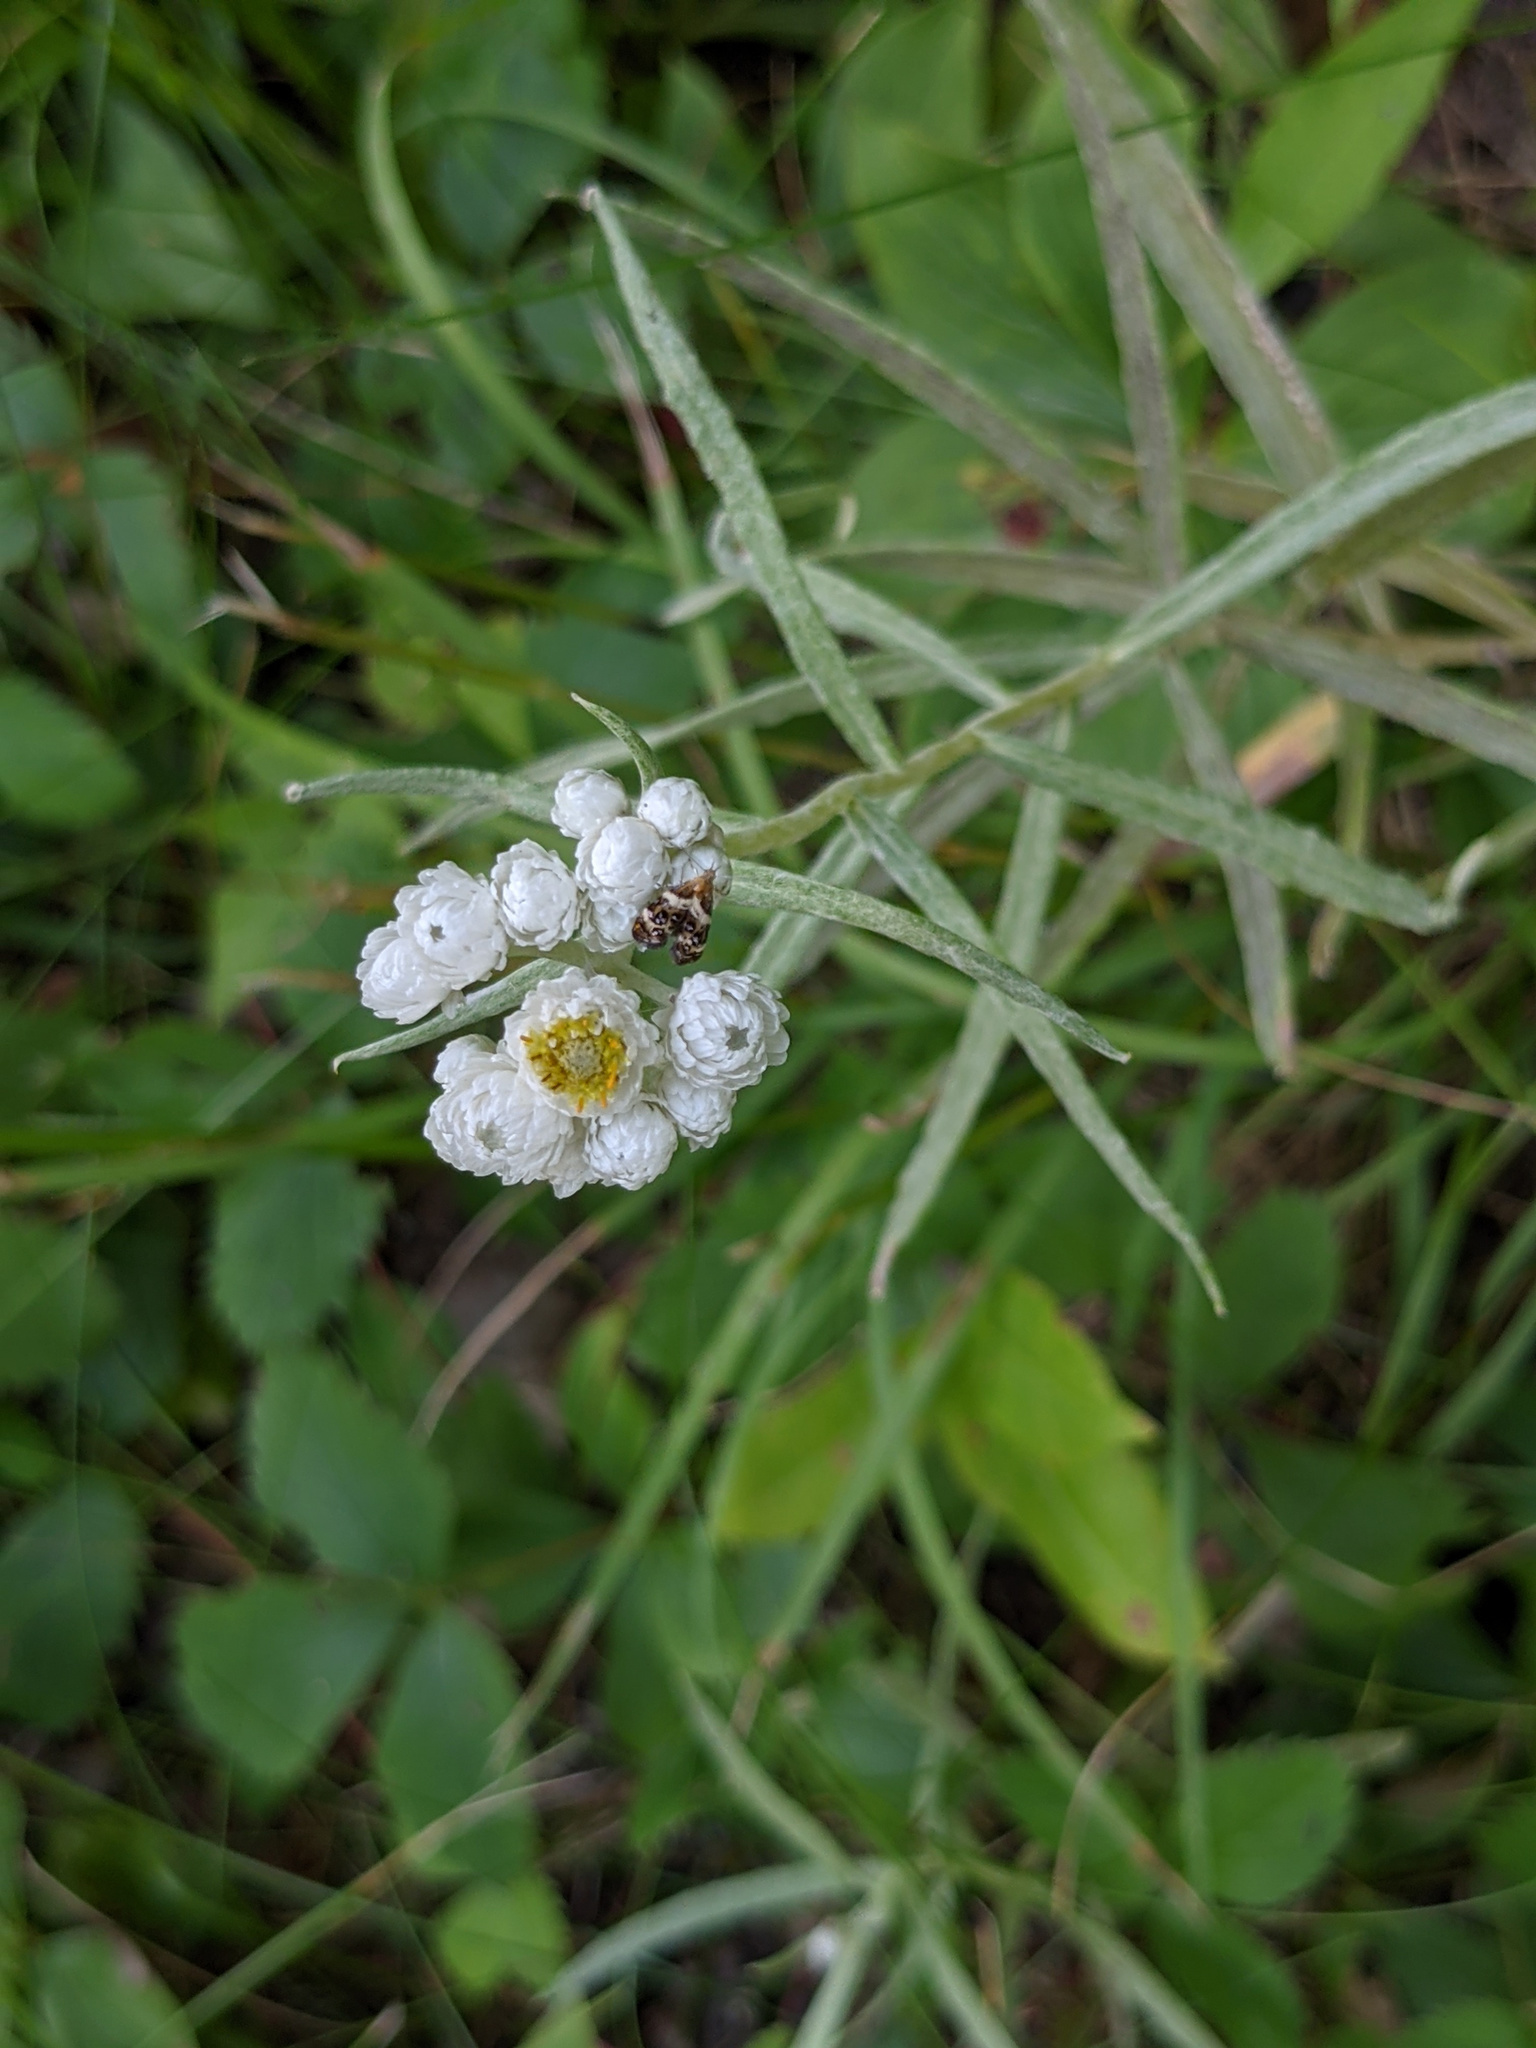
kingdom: Plantae
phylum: Tracheophyta
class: Magnoliopsida
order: Asterales
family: Asteraceae
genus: Anaphalis
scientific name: Anaphalis margaritacea
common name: Pearly everlasting
